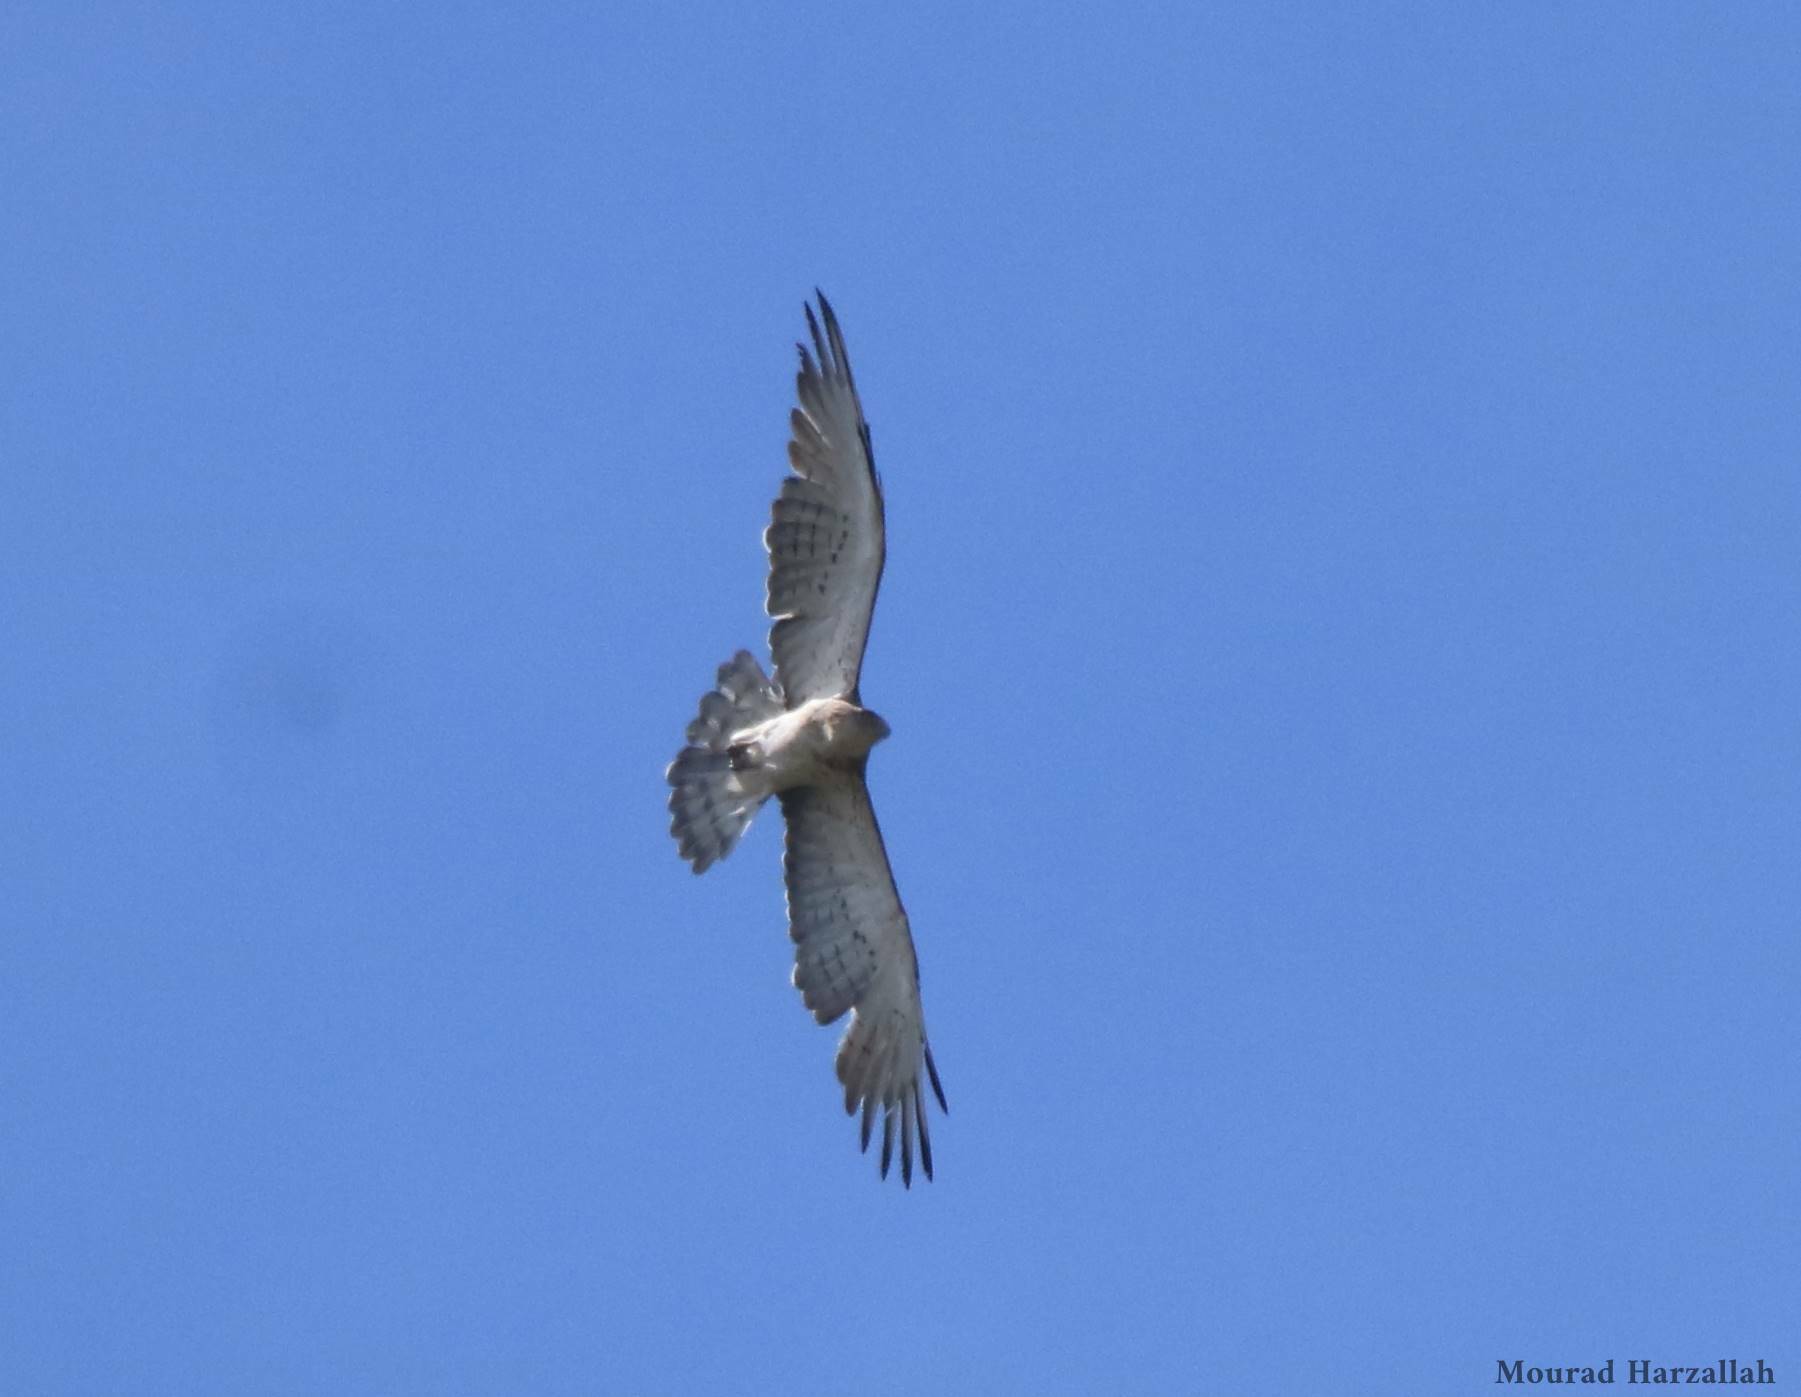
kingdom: Animalia
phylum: Chordata
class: Aves
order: Accipitriformes
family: Accipitridae
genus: Circaetus
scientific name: Circaetus gallicus
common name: Short-toed snake eagle
